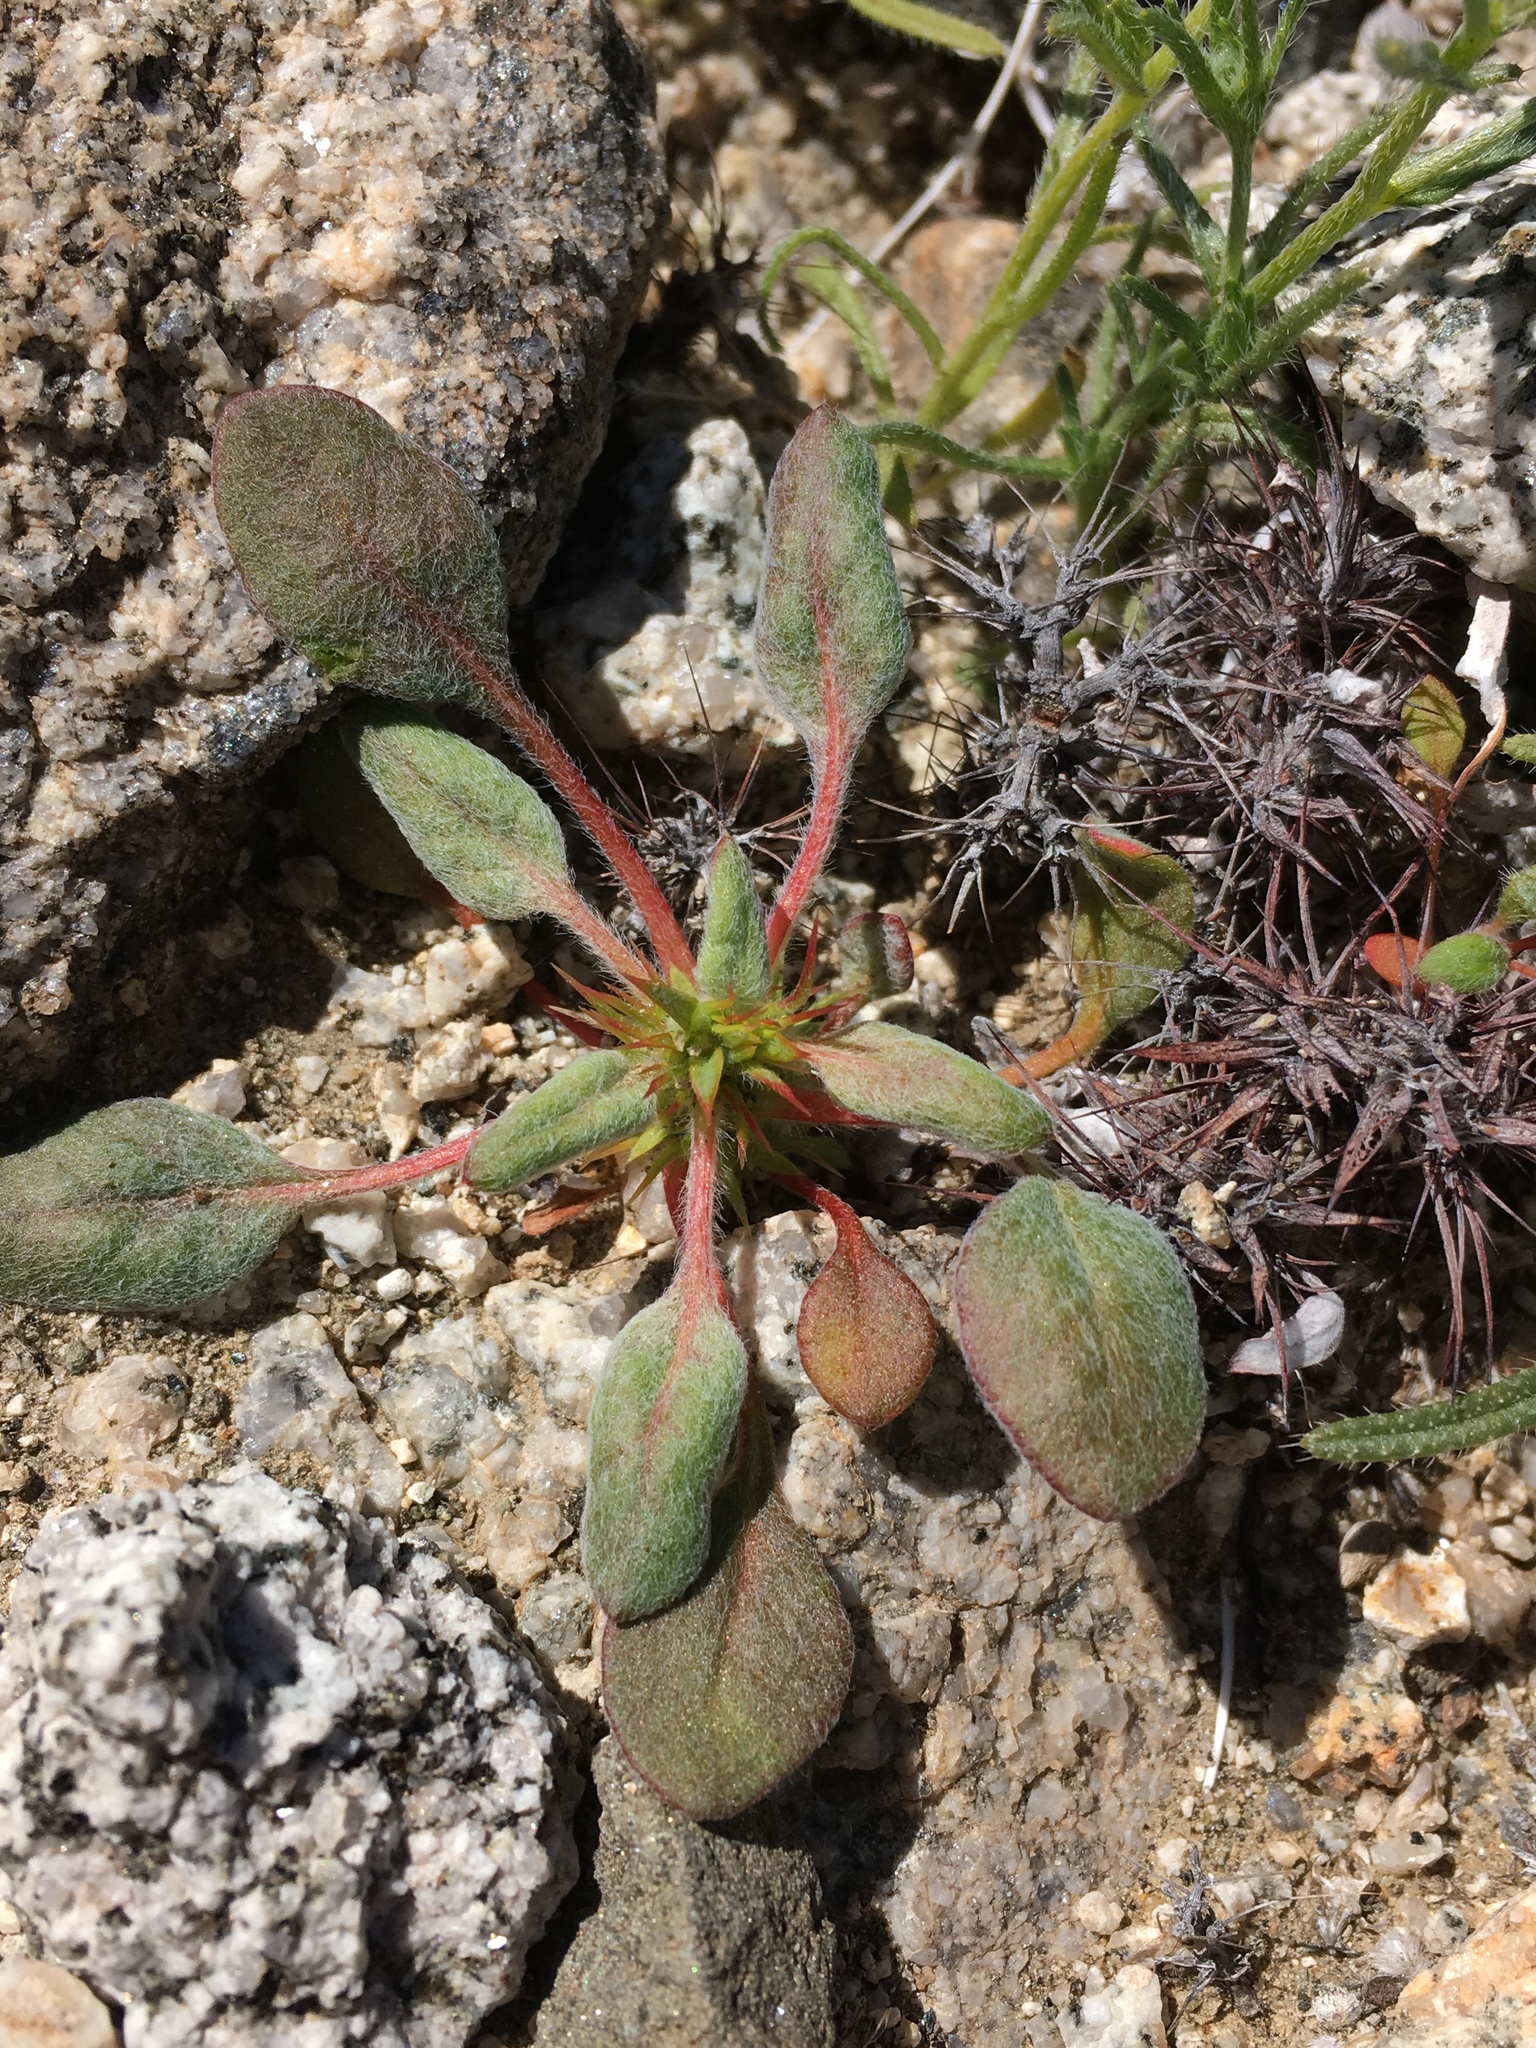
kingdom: Plantae
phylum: Tracheophyta
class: Magnoliopsida
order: Caryophyllales
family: Polygonaceae
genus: Chorizanthe
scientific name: Chorizanthe rigida
